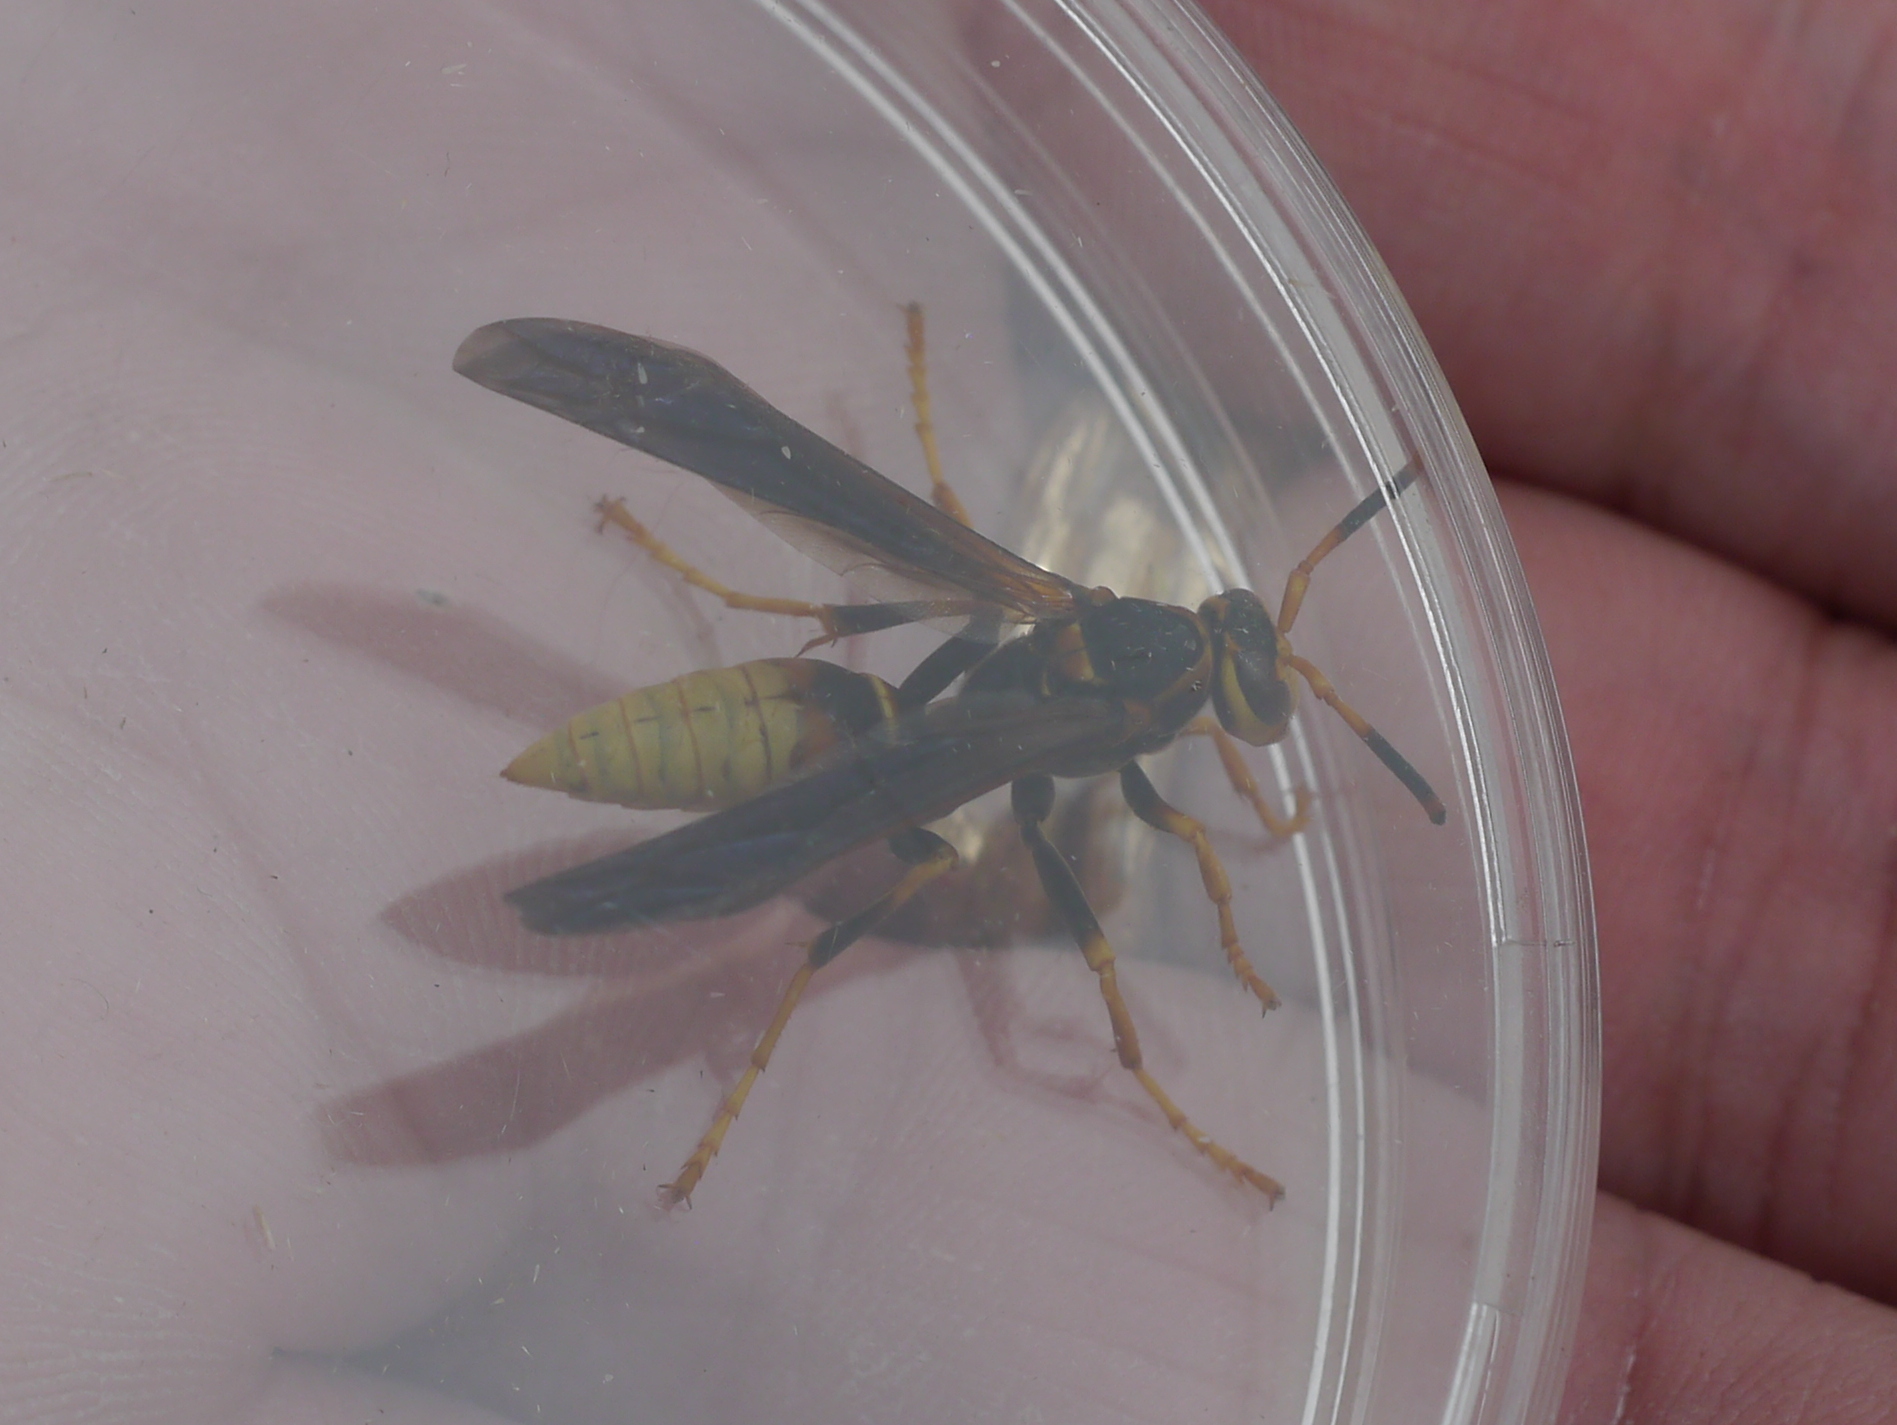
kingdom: Animalia
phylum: Arthropoda
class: Insecta
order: Hymenoptera
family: Eumenidae
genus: Polistes
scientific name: Polistes comanchus
